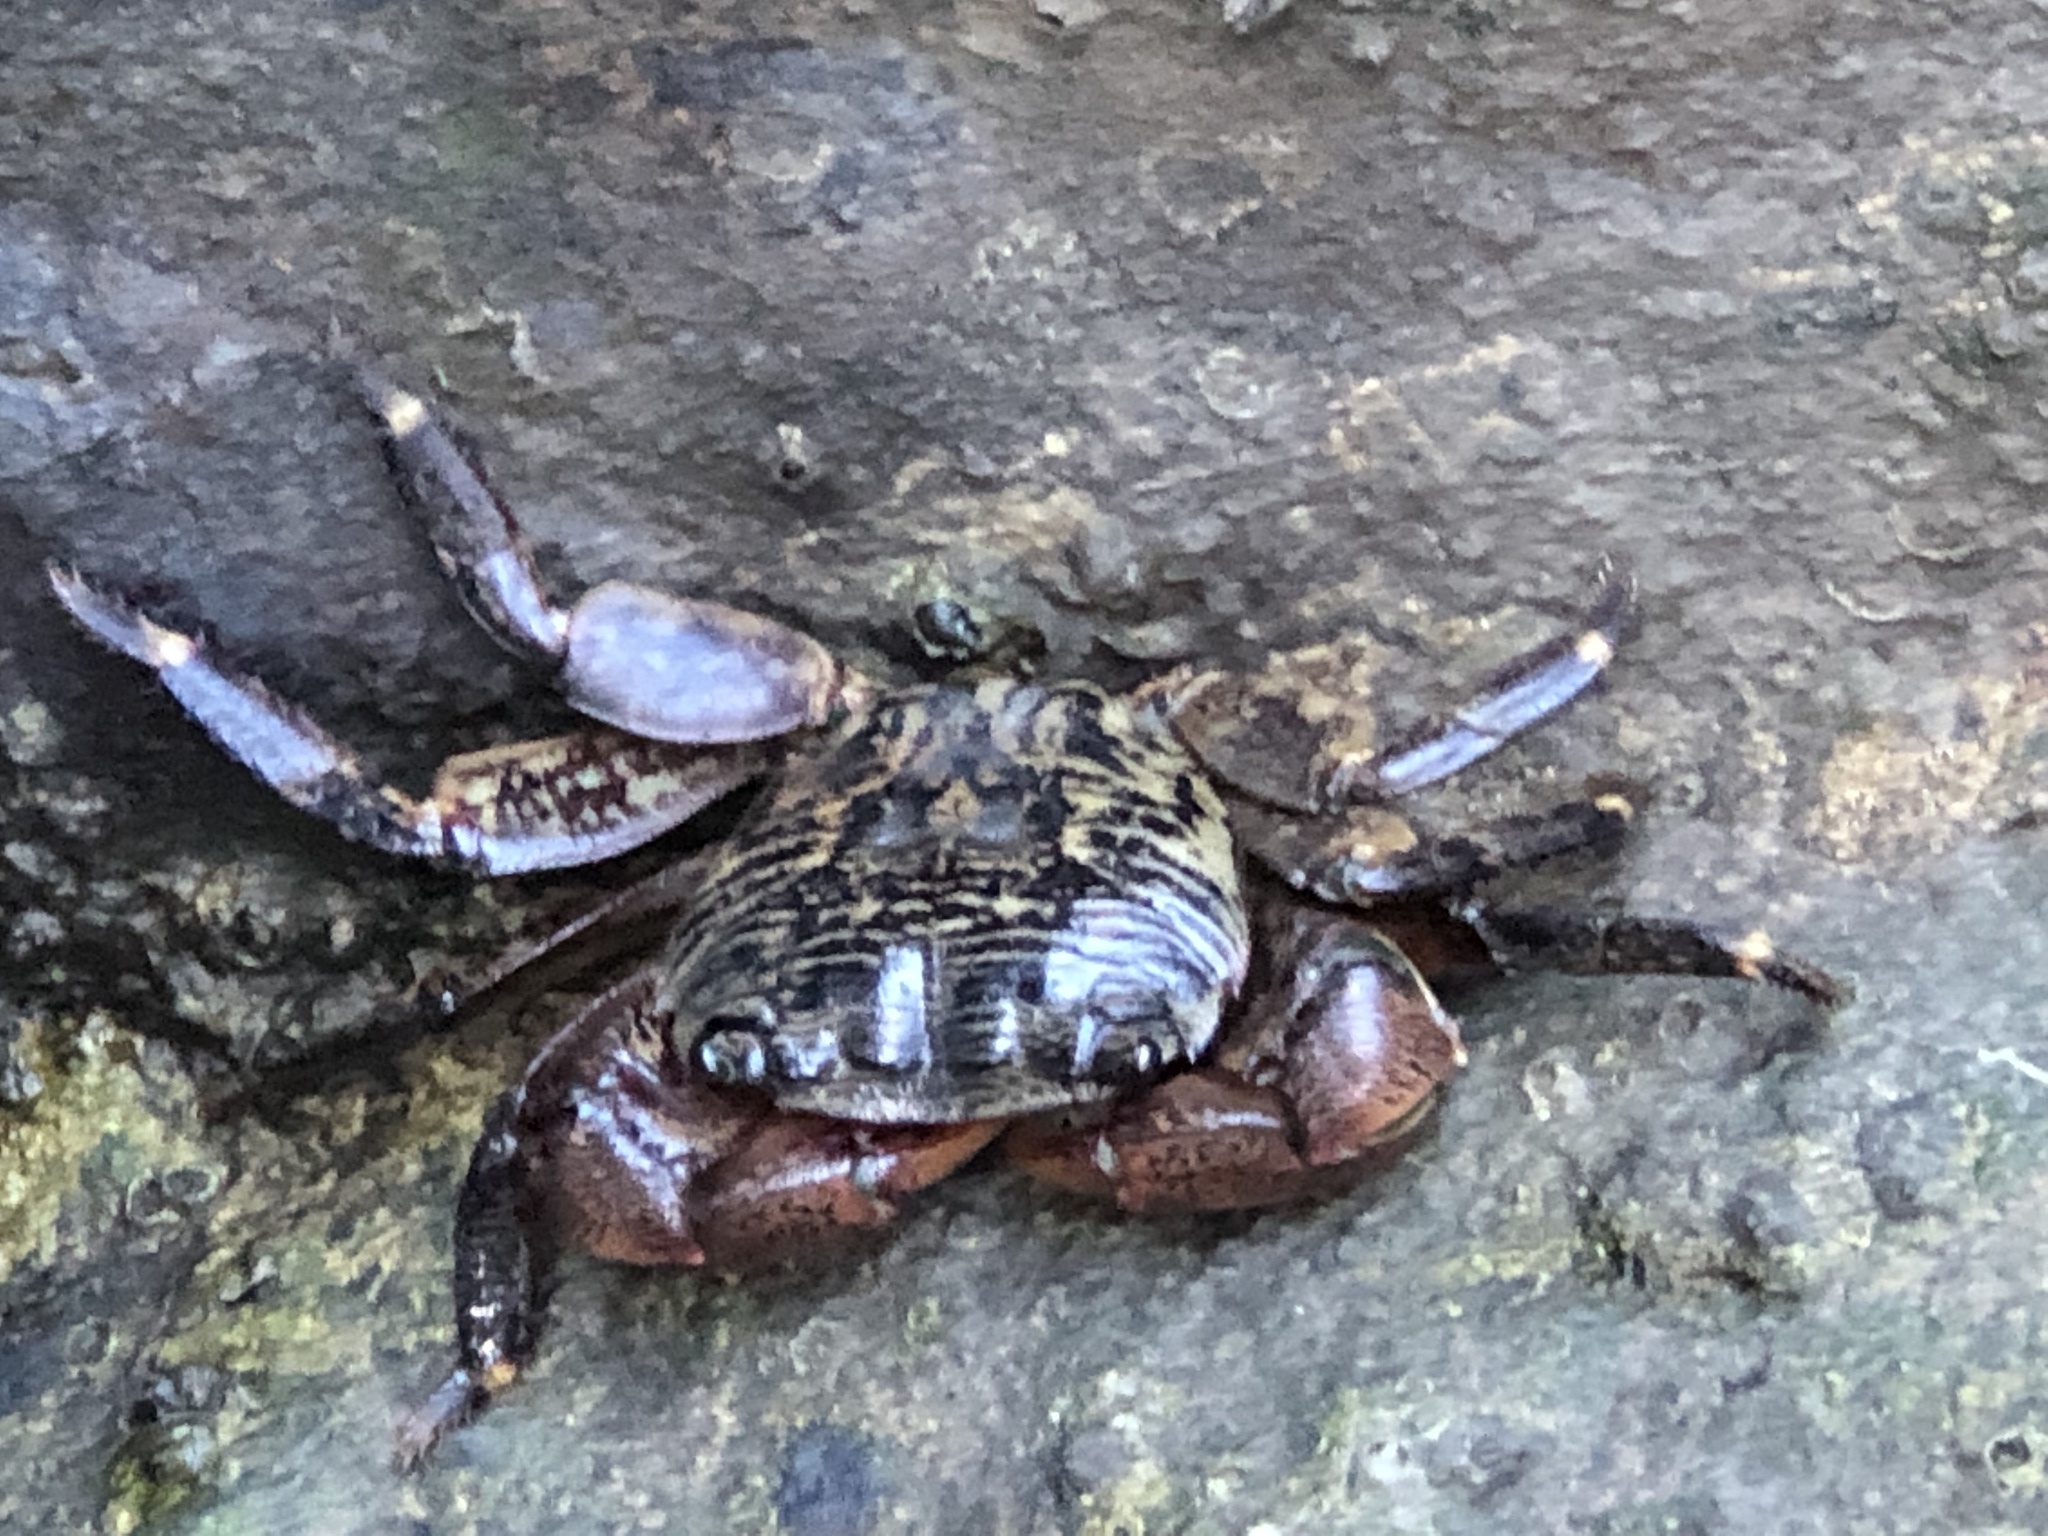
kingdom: Animalia
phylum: Arthropoda
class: Malacostraca
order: Decapoda
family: Grapsidae
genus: Pachygrapsus
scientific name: Pachygrapsus crassipes
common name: Striped shore crab
